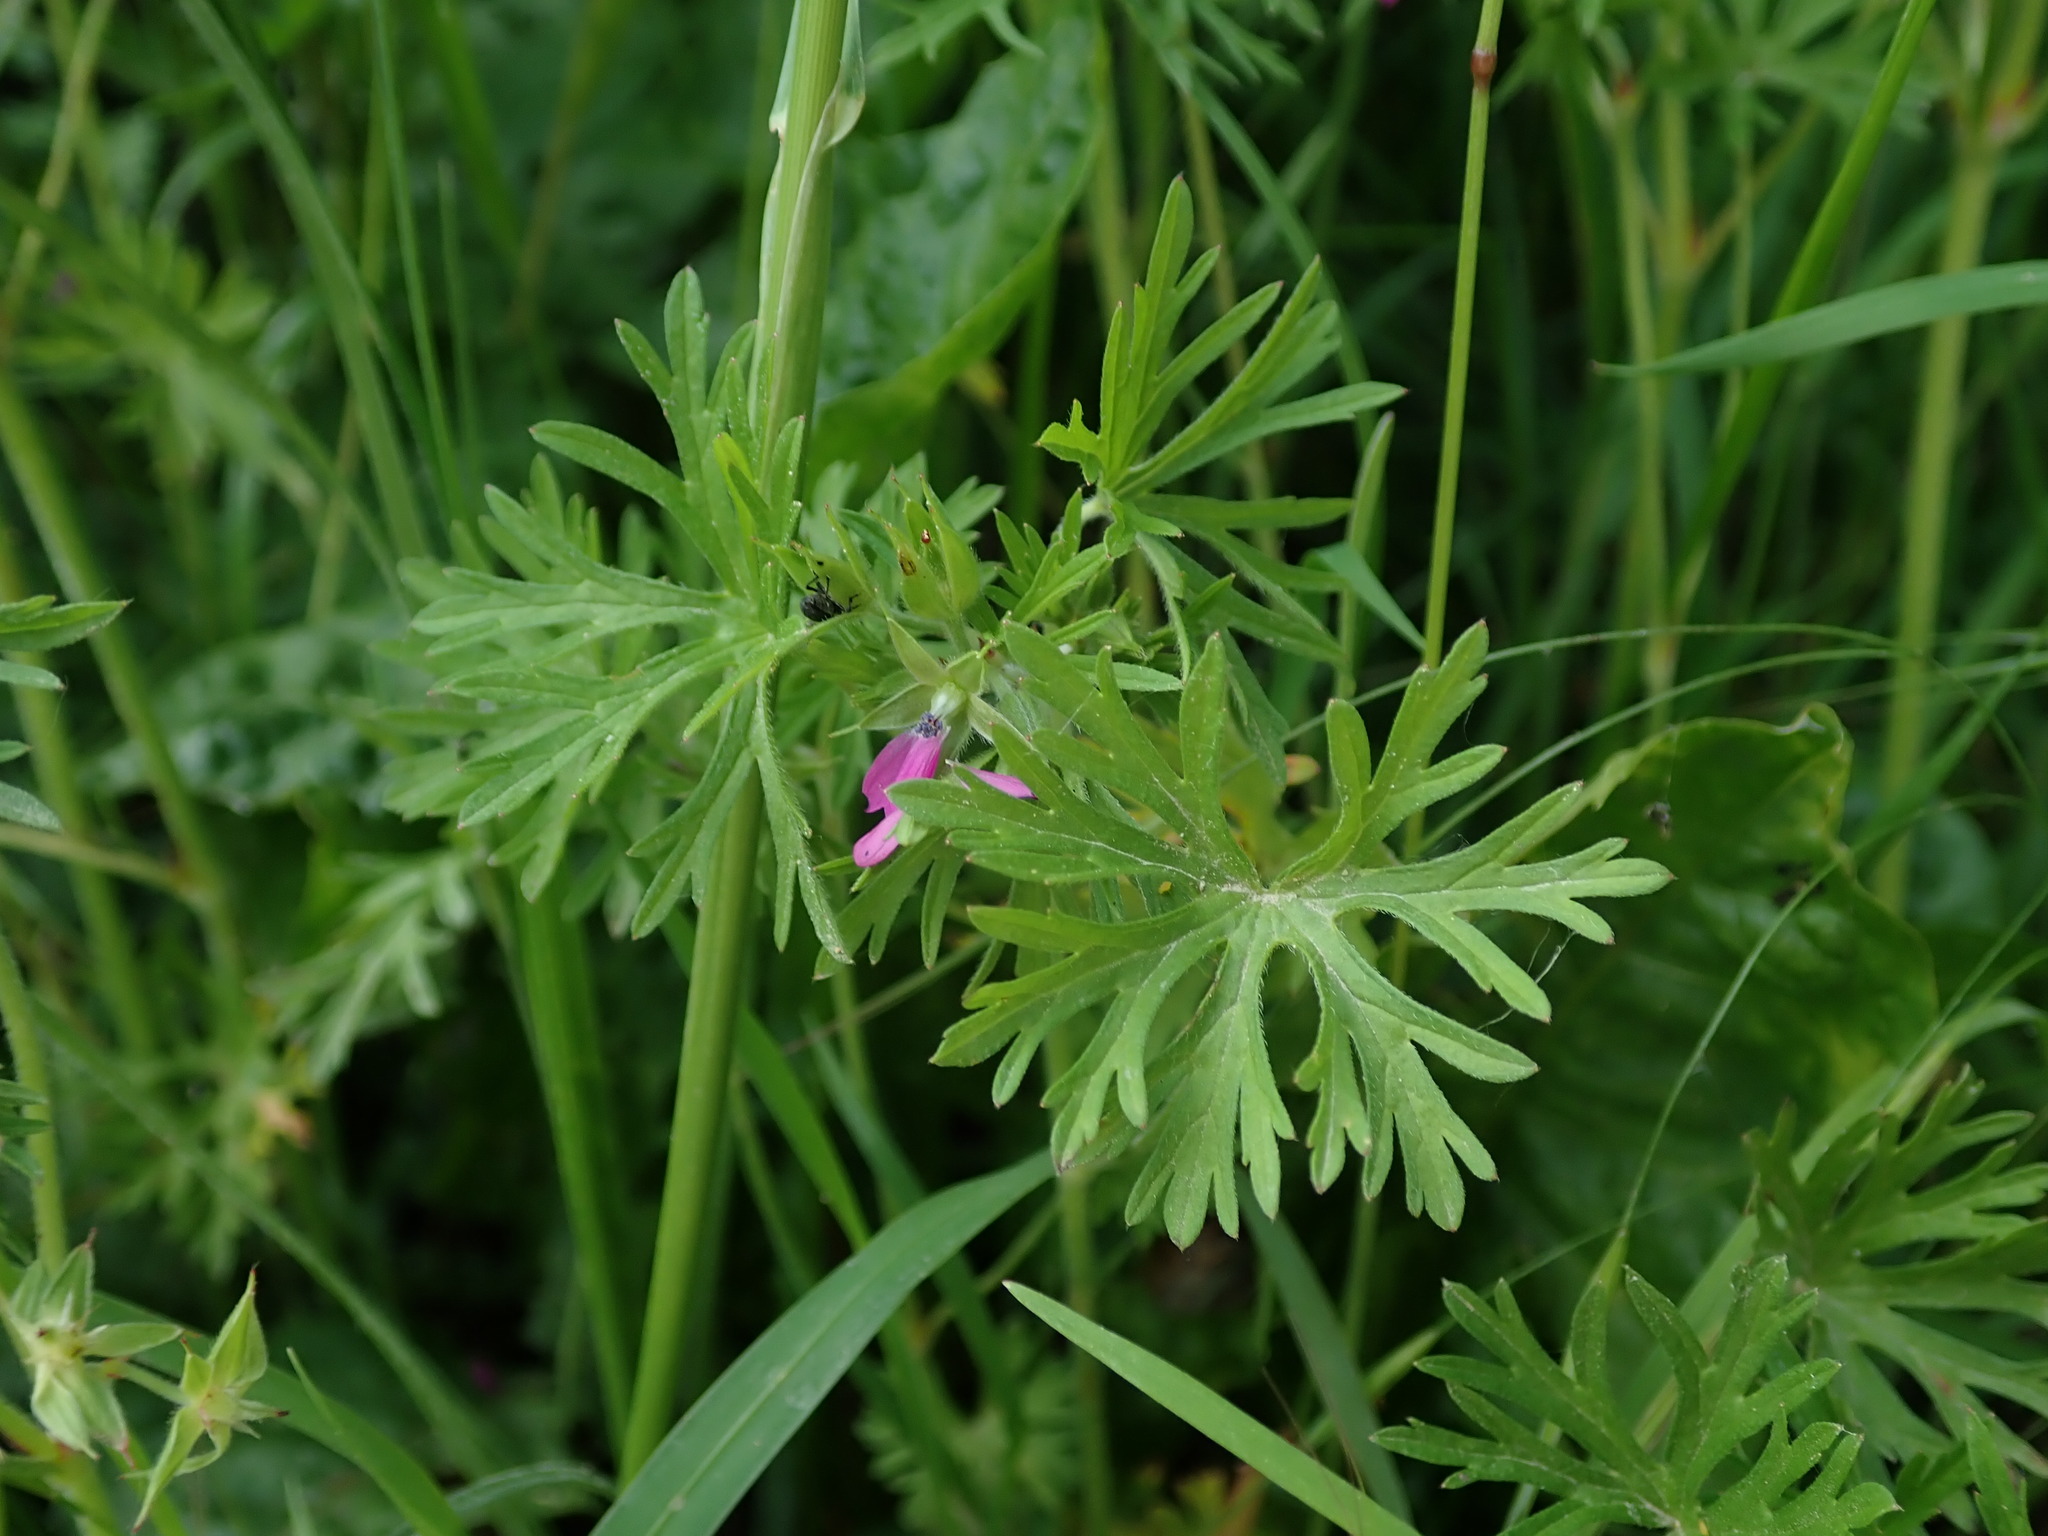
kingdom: Plantae
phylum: Tracheophyta
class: Magnoliopsida
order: Geraniales
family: Geraniaceae
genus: Geranium
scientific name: Geranium dissectum
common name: Cut-leaved crane's-bill
